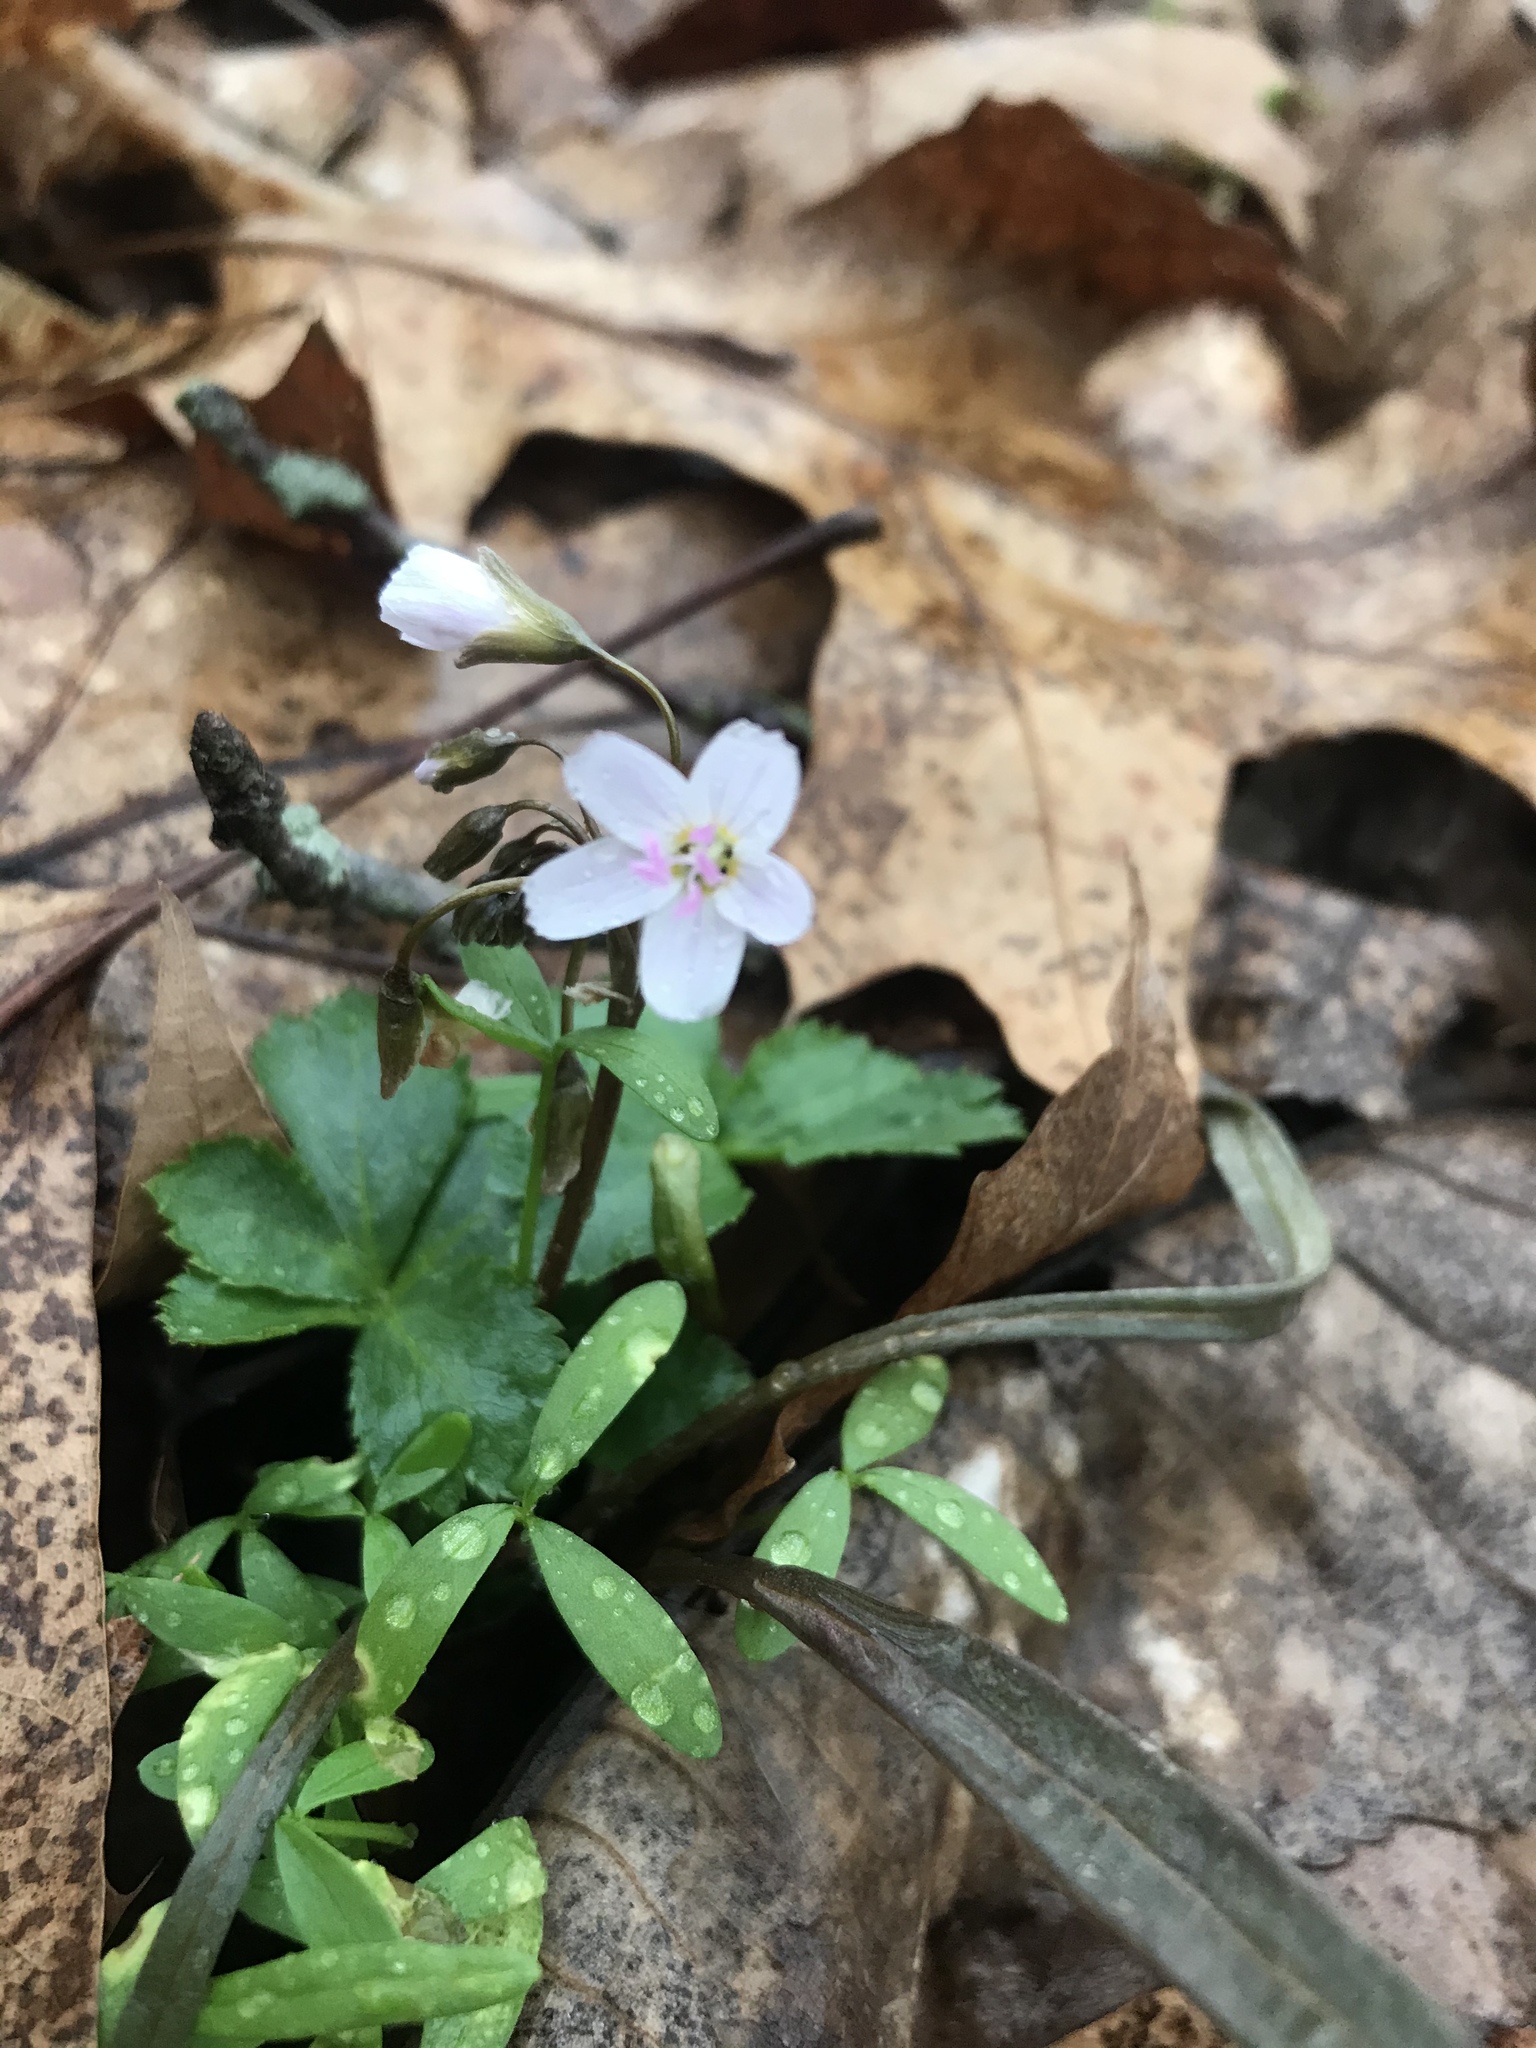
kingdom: Plantae
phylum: Tracheophyta
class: Magnoliopsida
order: Caryophyllales
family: Montiaceae
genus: Claytonia
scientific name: Claytonia virginica
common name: Virginia springbeauty
